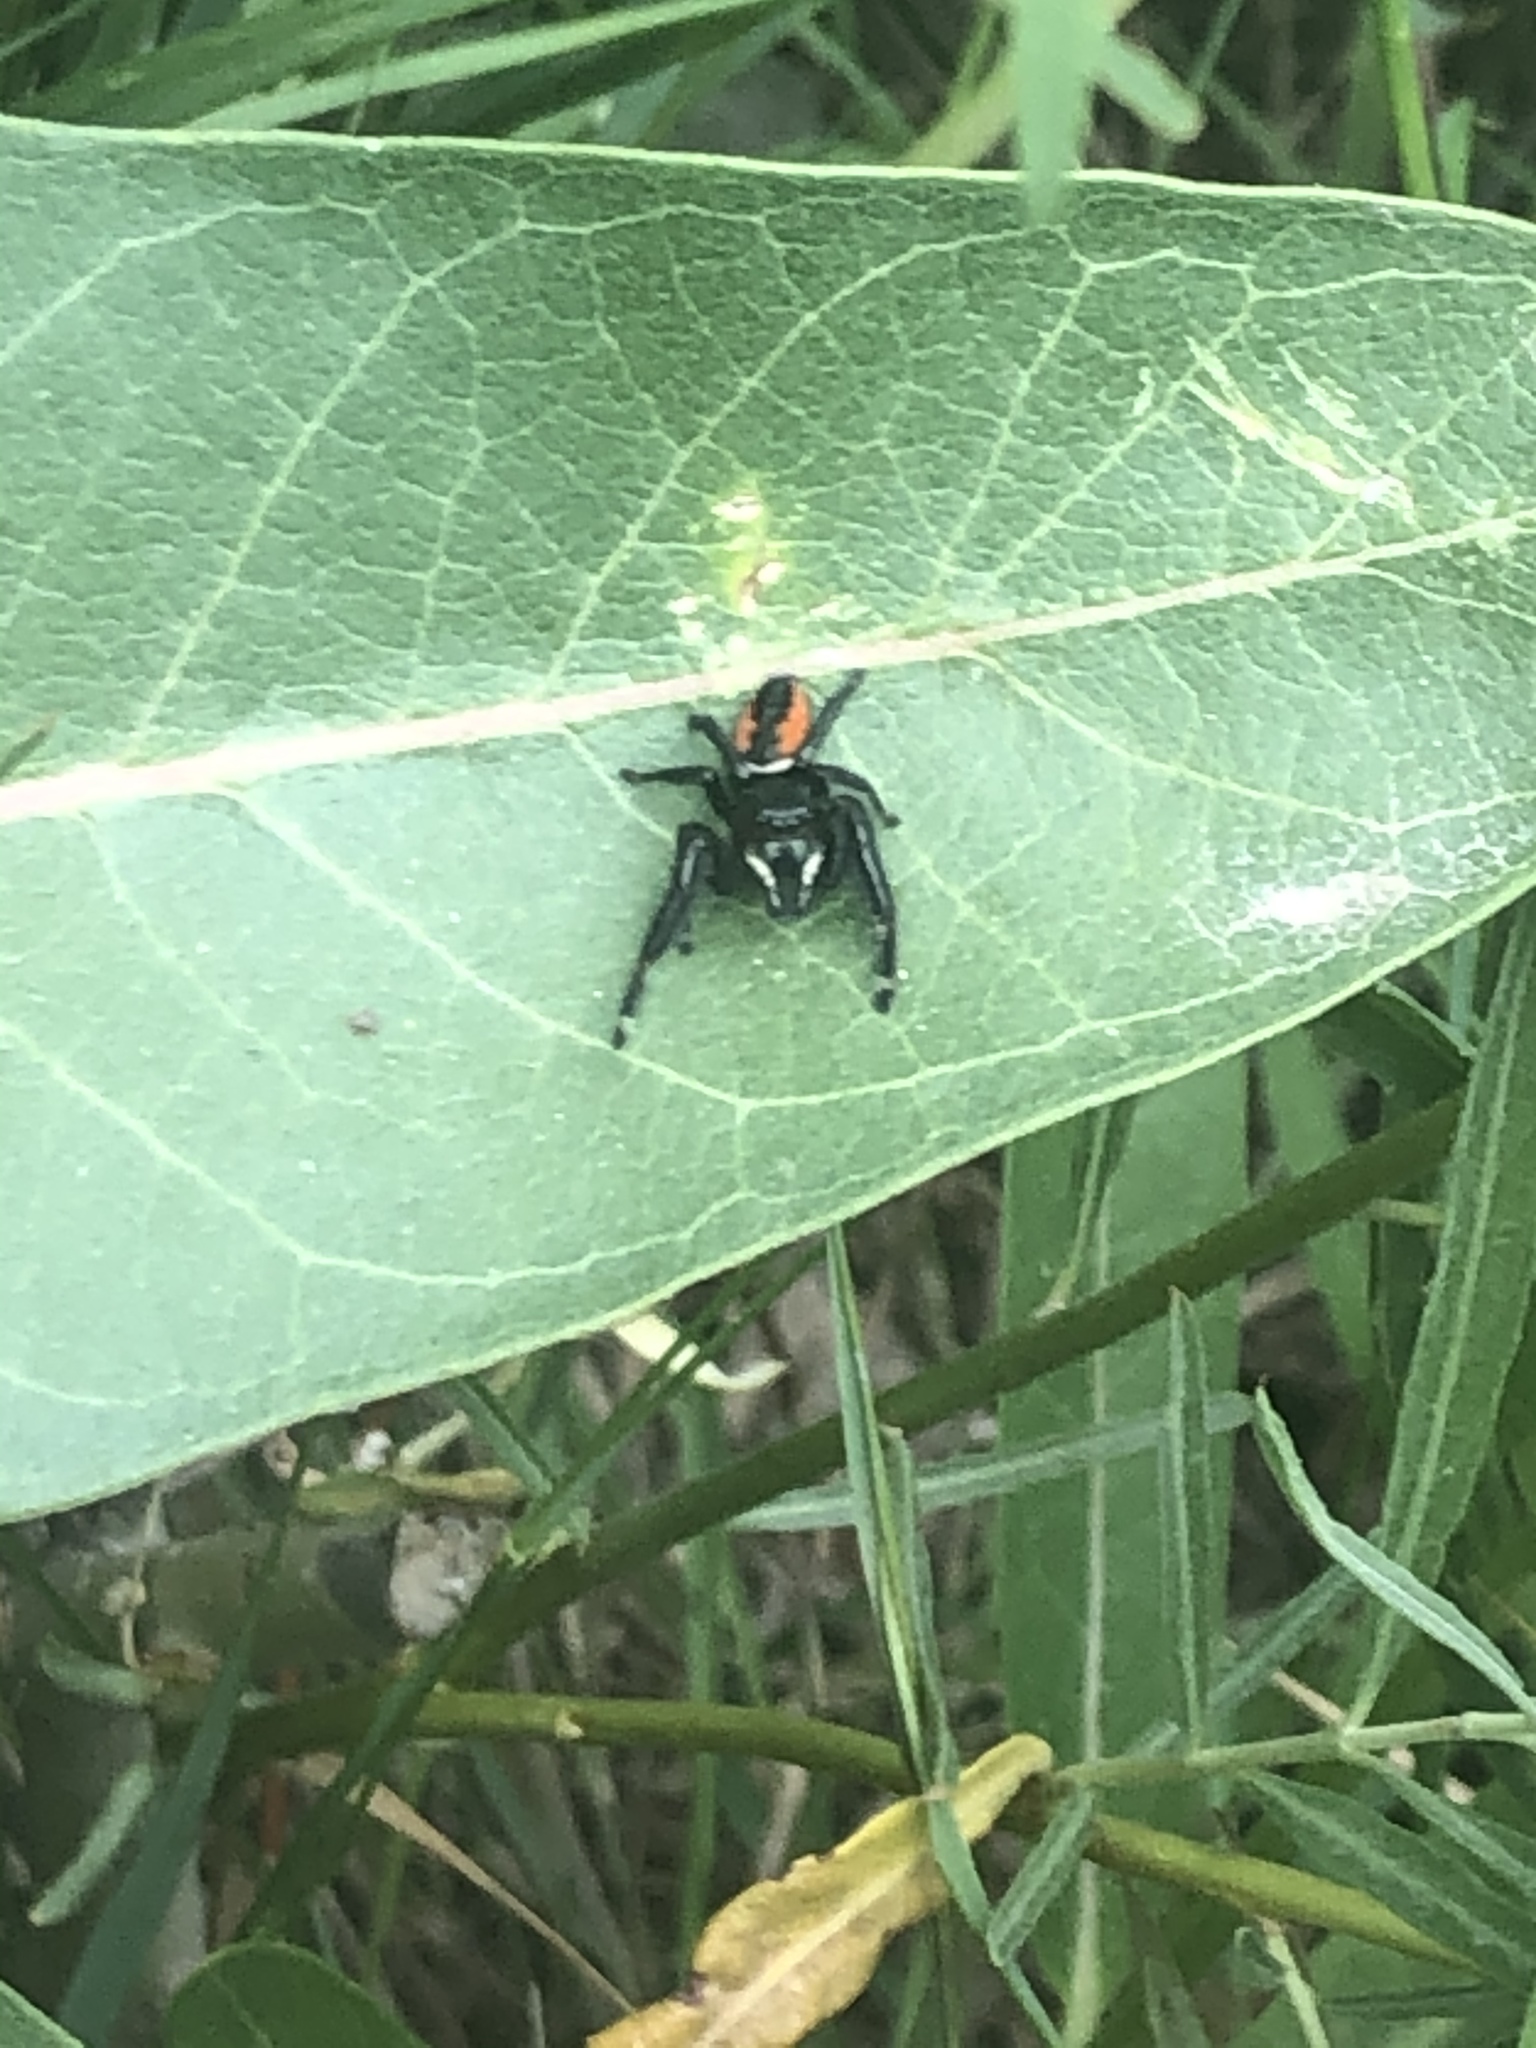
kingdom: Animalia
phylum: Arthropoda
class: Arachnida
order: Araneae
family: Salticidae
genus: Phidippus
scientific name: Phidippus clarus
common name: Brilliant jumping spider
